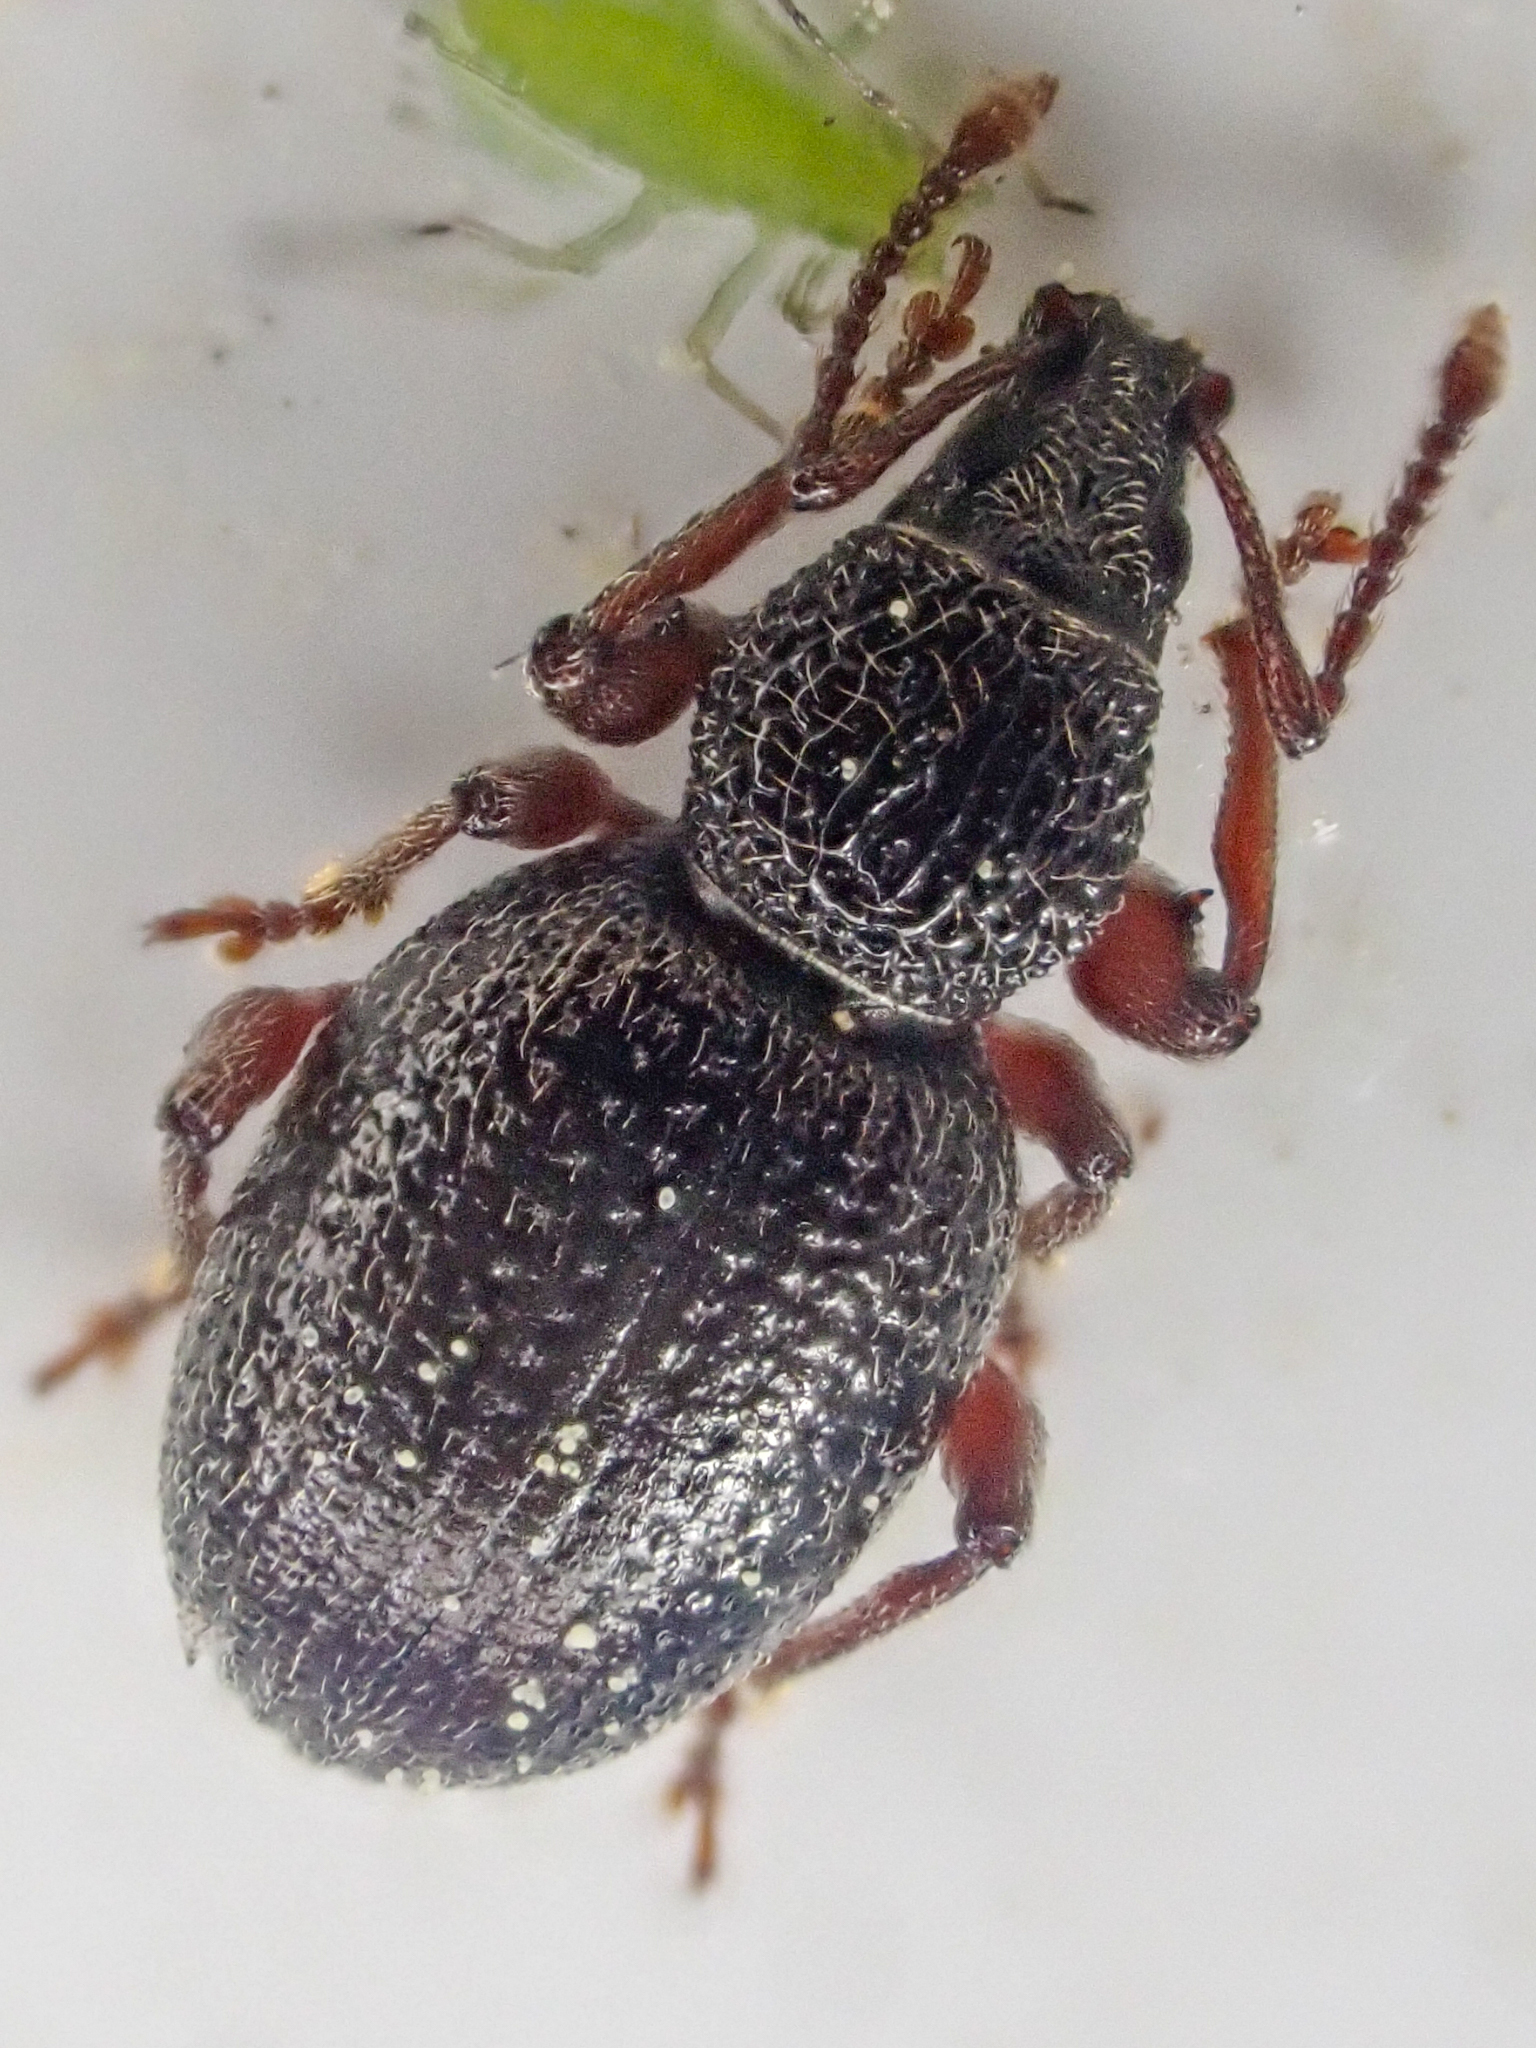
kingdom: Animalia
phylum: Arthropoda
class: Insecta
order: Coleoptera
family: Curculionidae
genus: Otiorhynchus
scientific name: Otiorhynchus ovatus
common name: Strawberry root weevil
